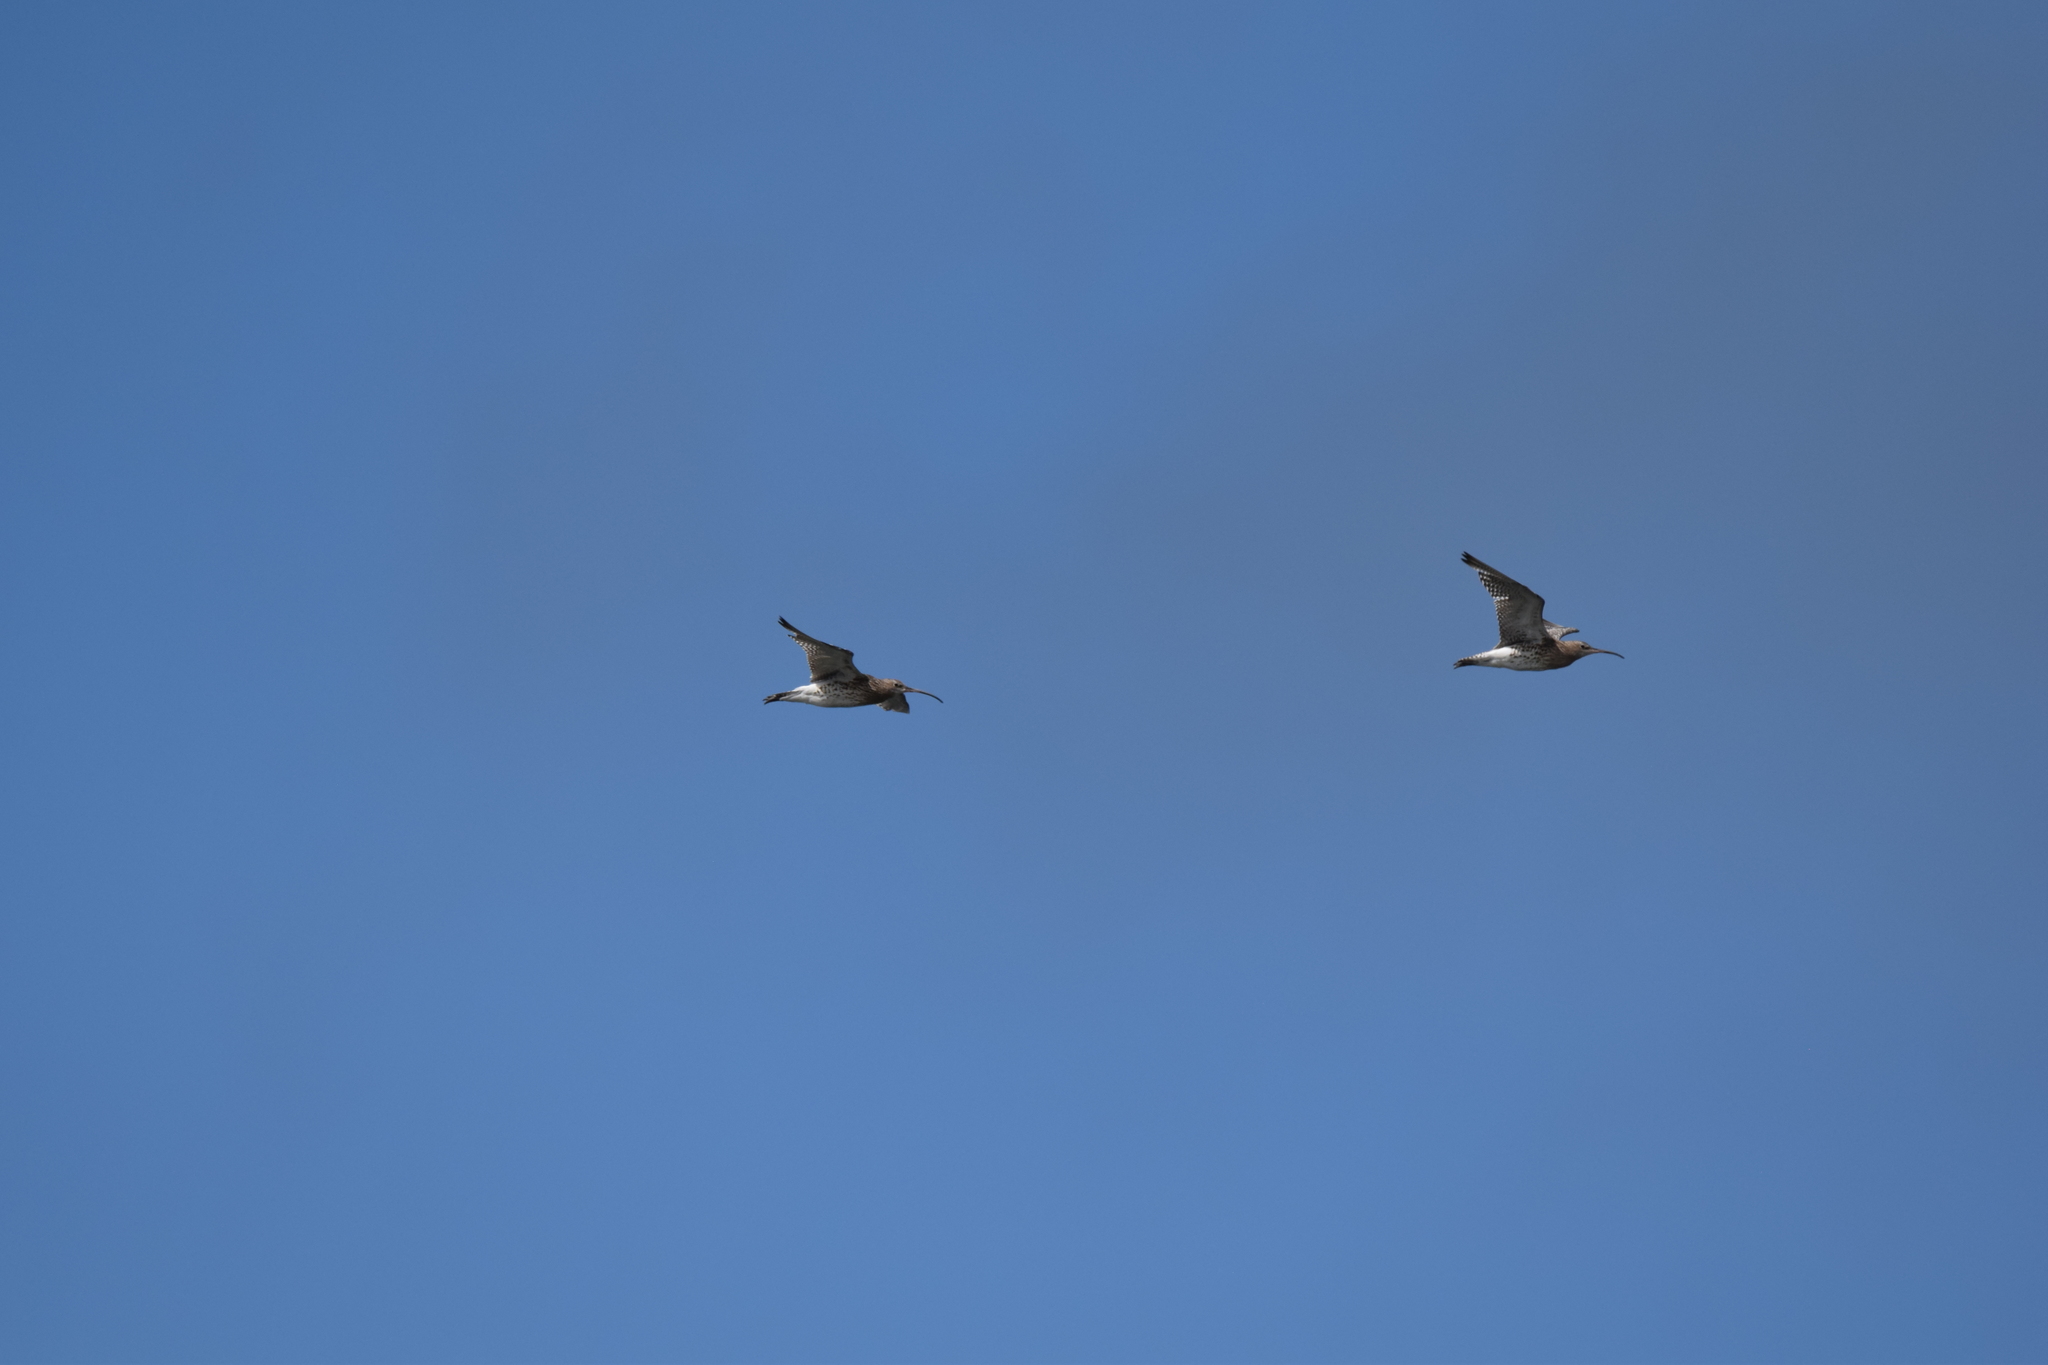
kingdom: Animalia
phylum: Chordata
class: Aves
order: Charadriiformes
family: Scolopacidae
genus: Numenius
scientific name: Numenius arquata
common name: Eurasian curlew
